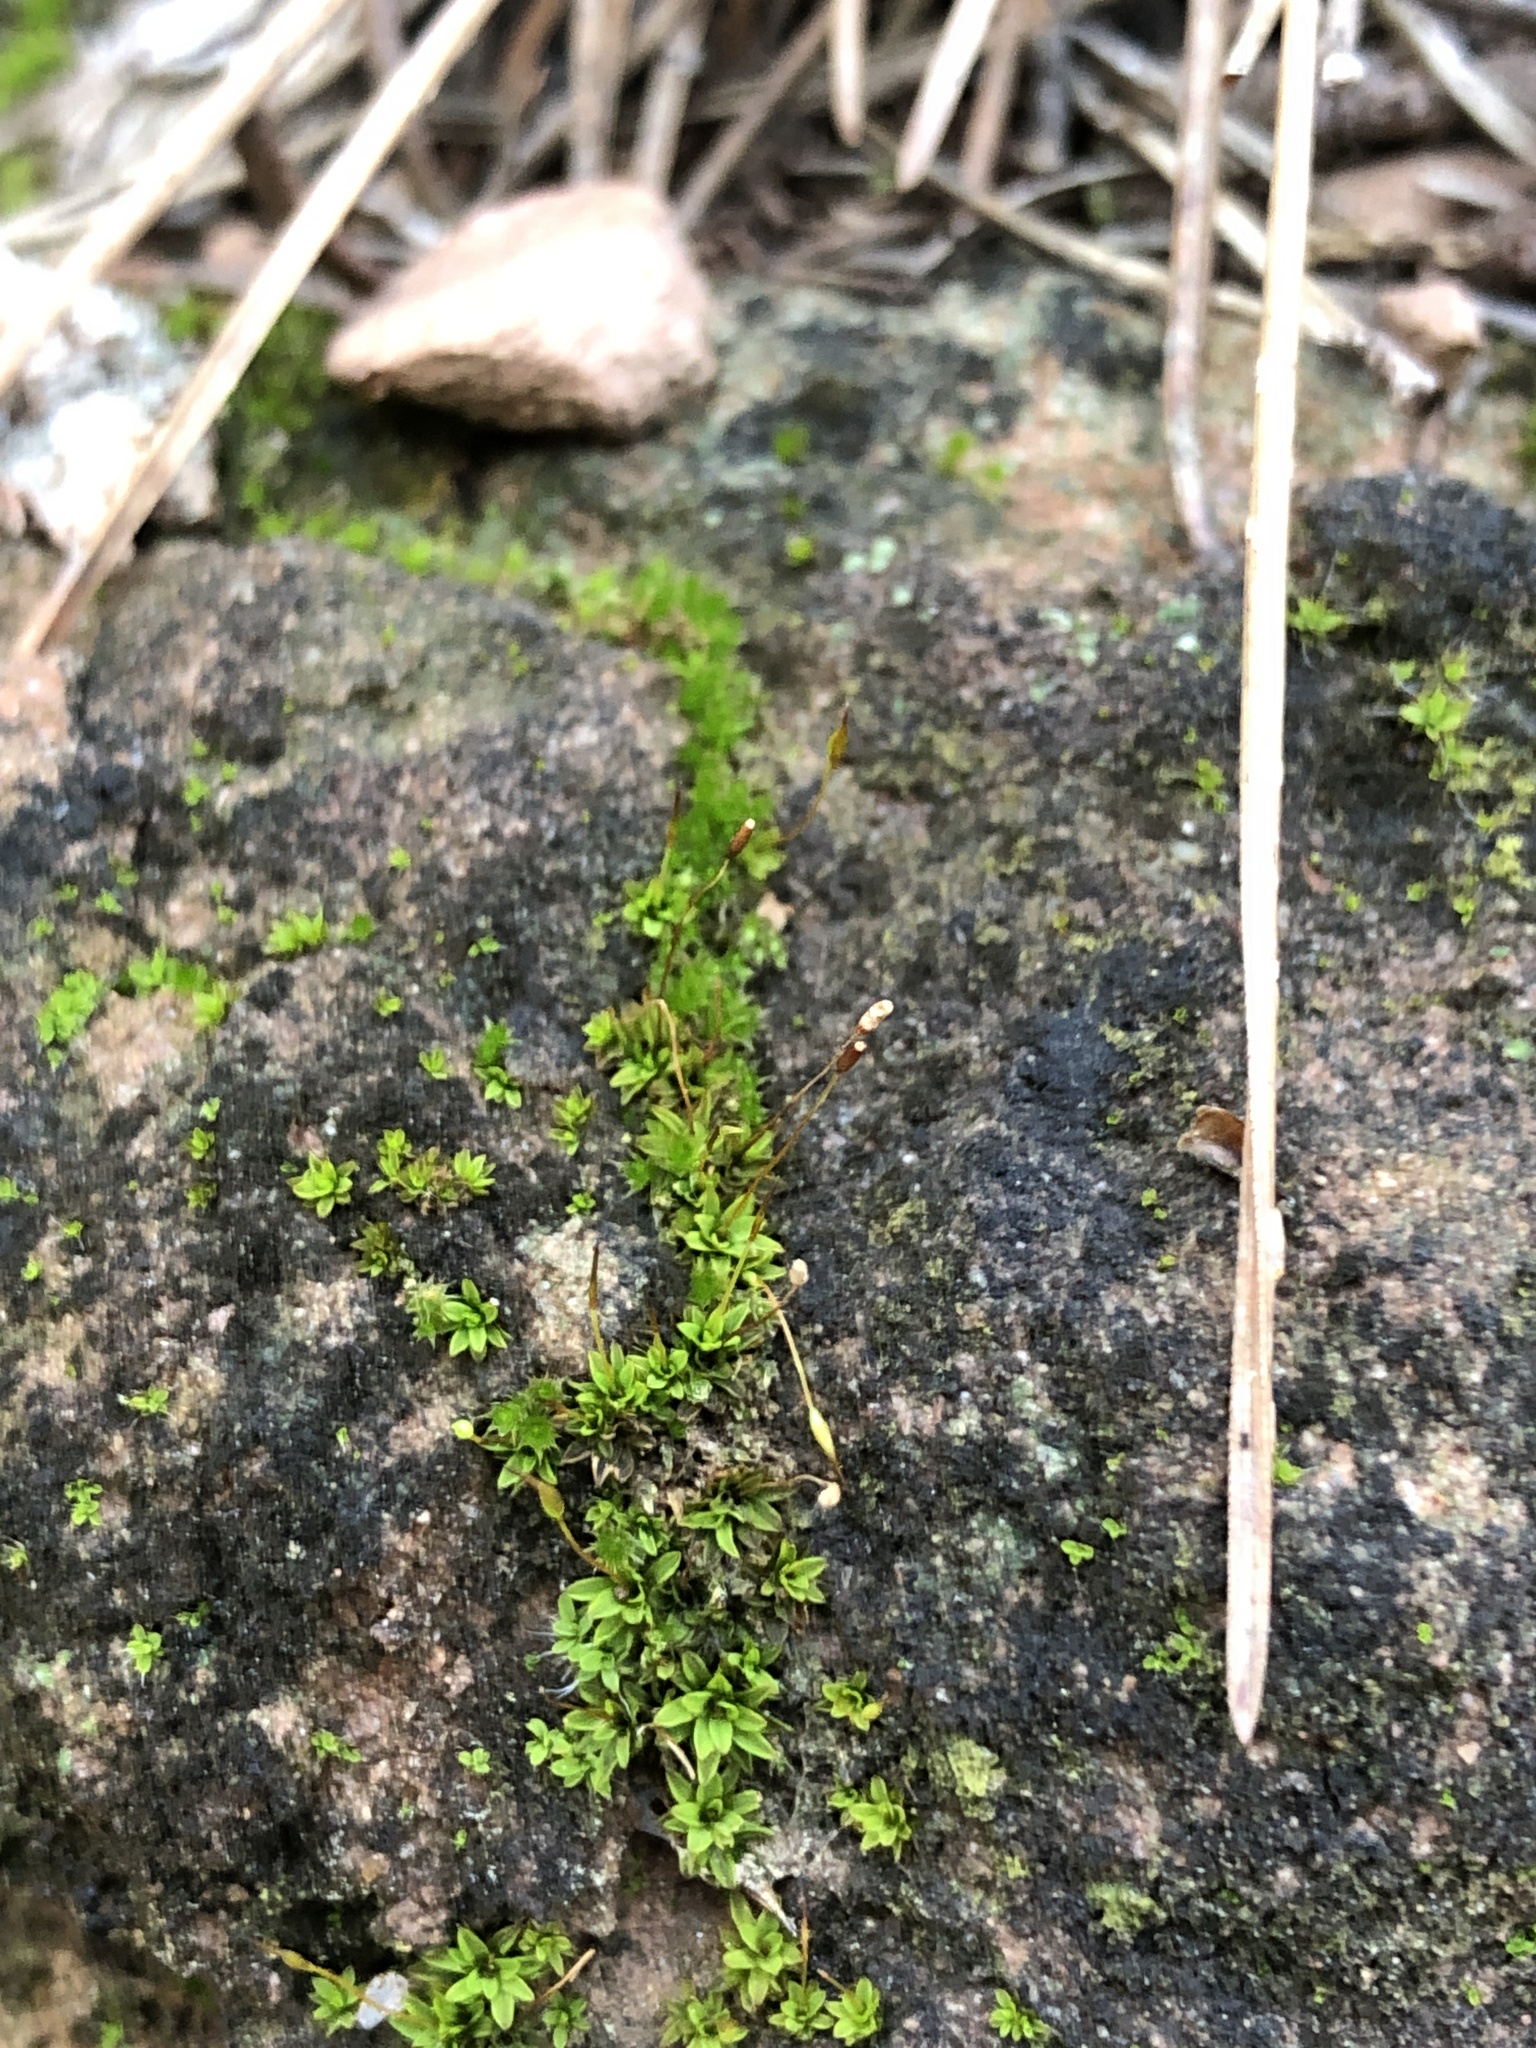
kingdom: Plantae
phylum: Bryophyta
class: Bryopsida
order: Pottiales
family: Pottiaceae
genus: Tortula
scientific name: Tortula muralis
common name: Wall screw-moss
